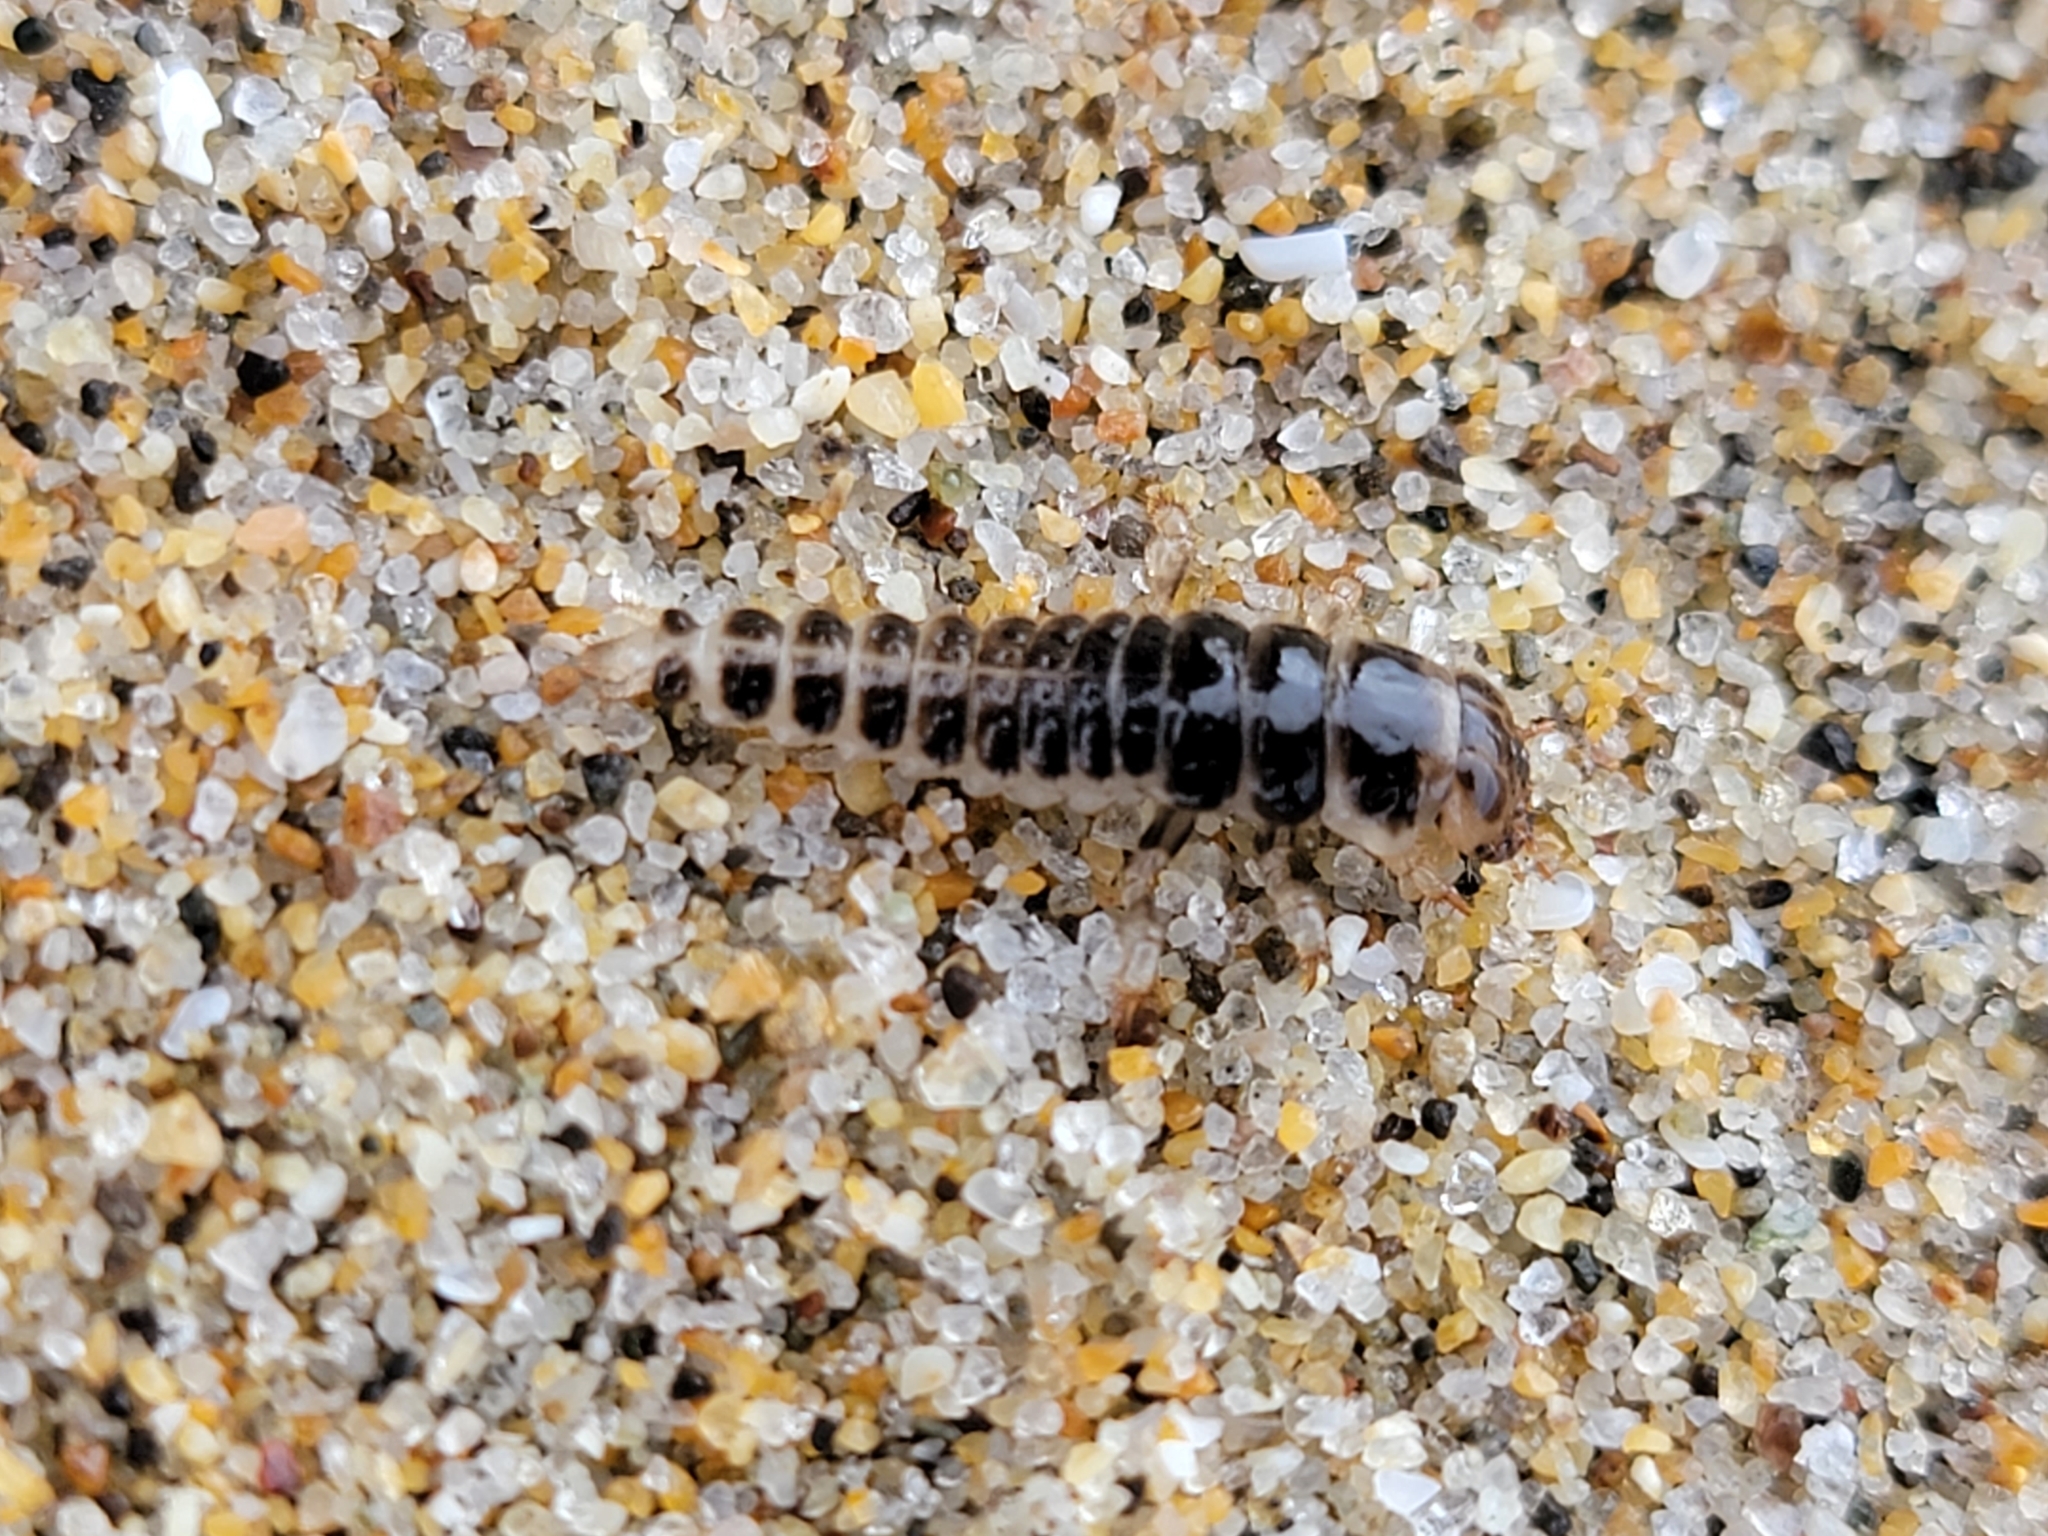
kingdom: Animalia
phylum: Arthropoda
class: Insecta
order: Coleoptera
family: Staphylinidae
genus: Thinopinus
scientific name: Thinopinus pictus
